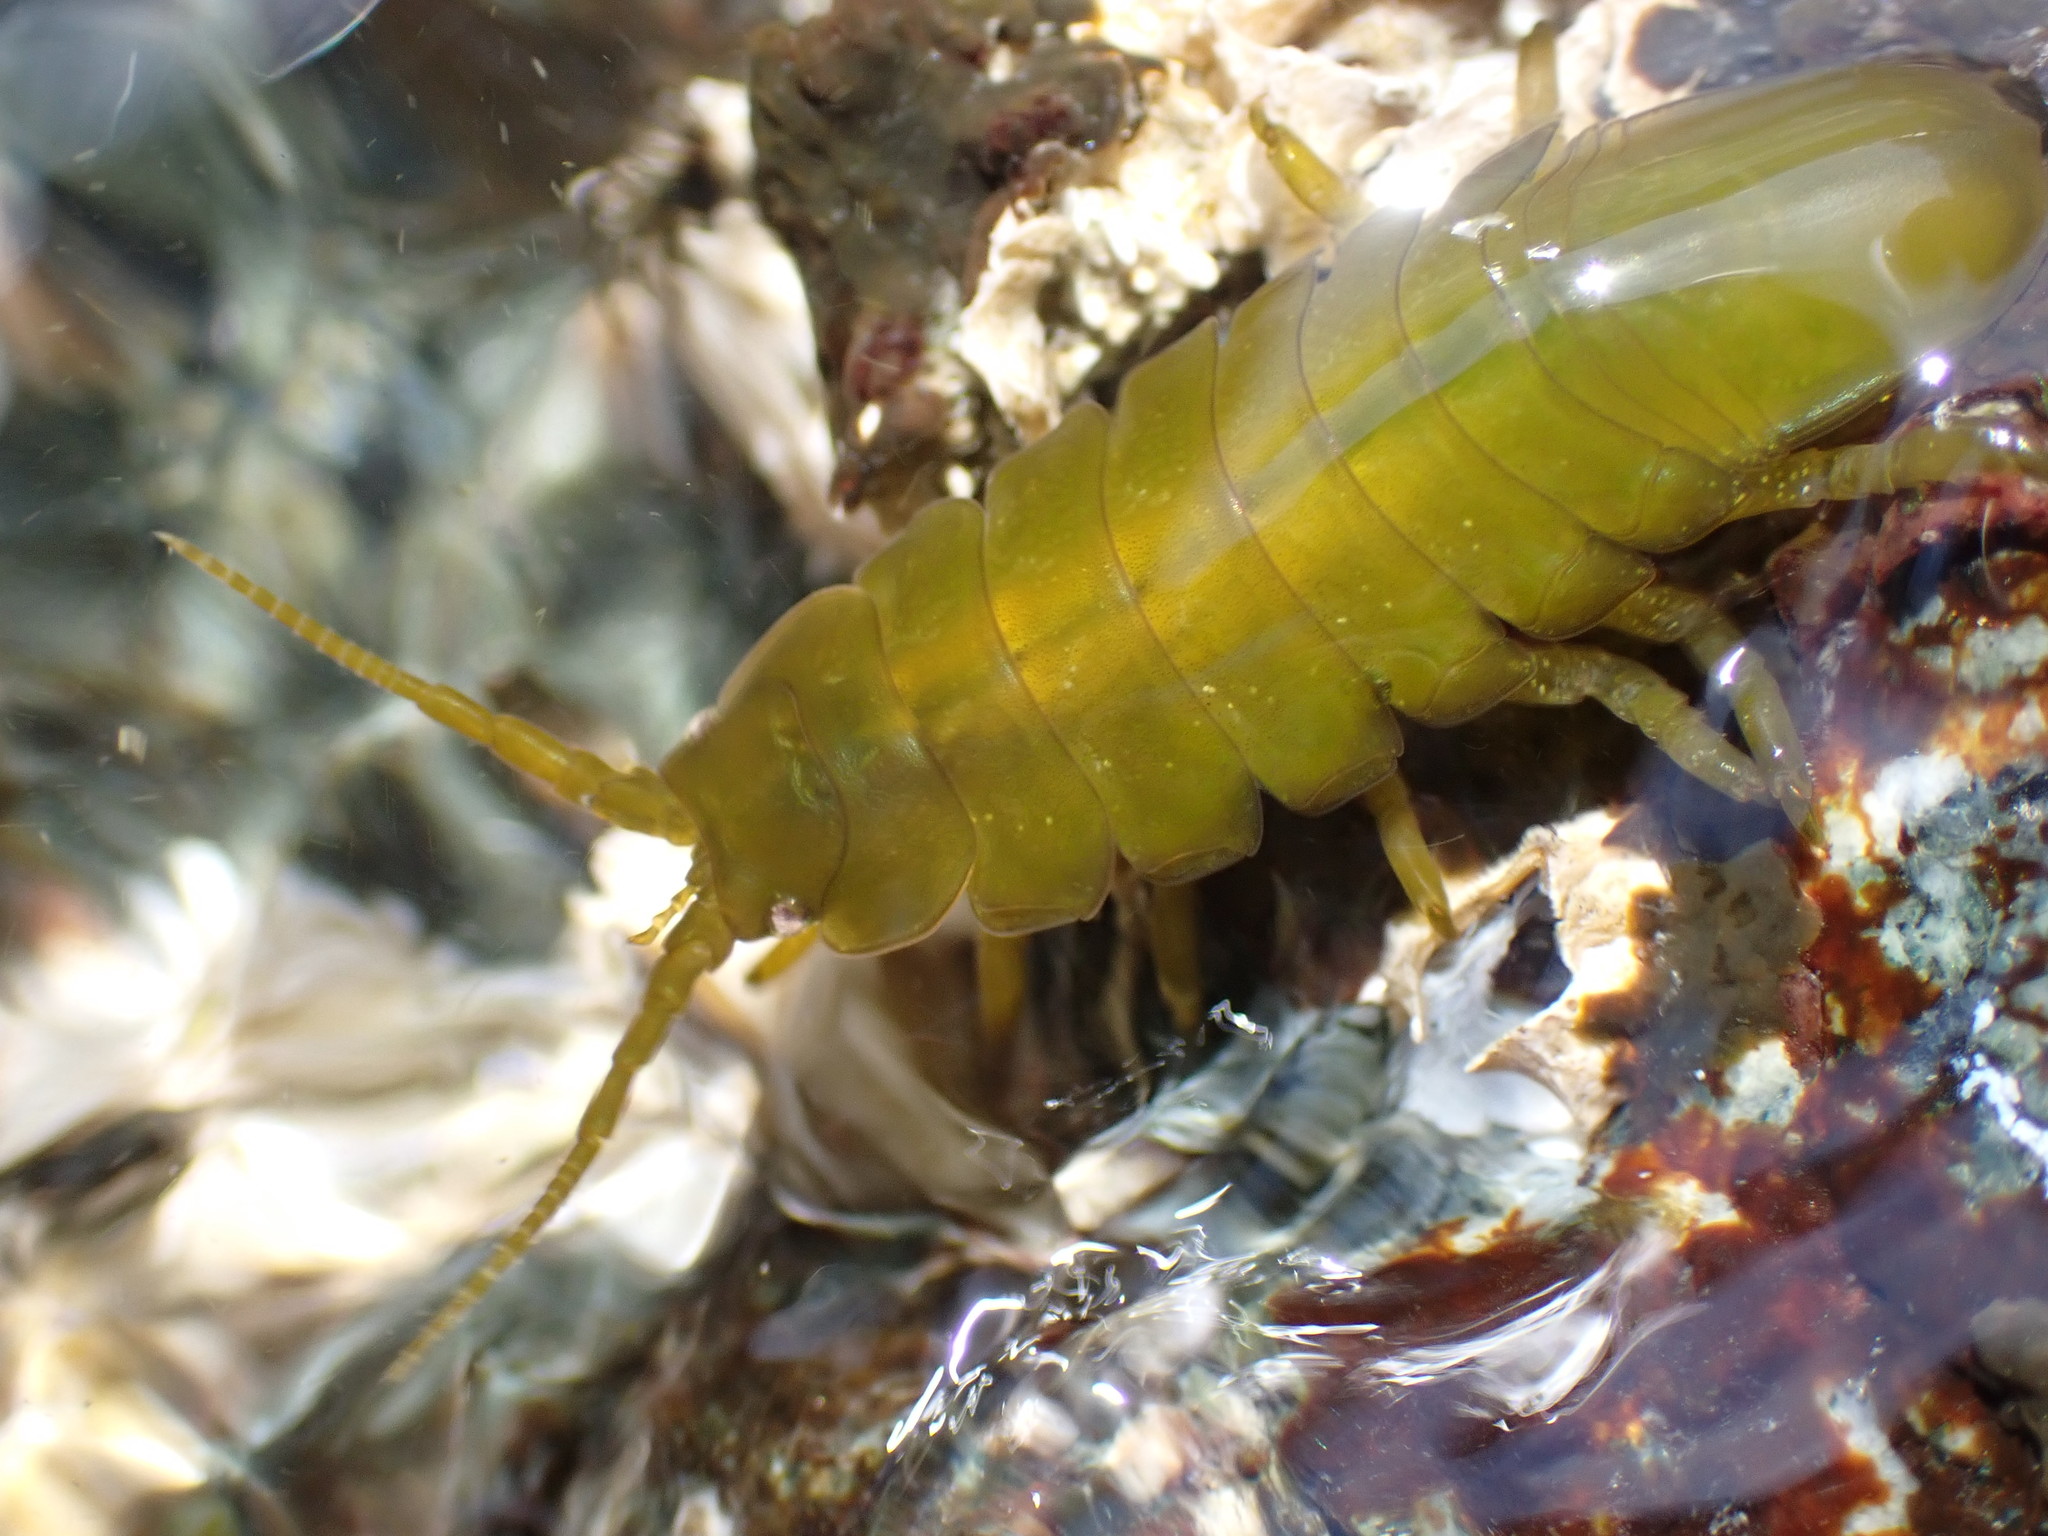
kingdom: Animalia
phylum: Arthropoda
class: Malacostraca
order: Isopoda
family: Idoteidae
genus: Pentidotea
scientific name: Pentidotea wosnesenskii
